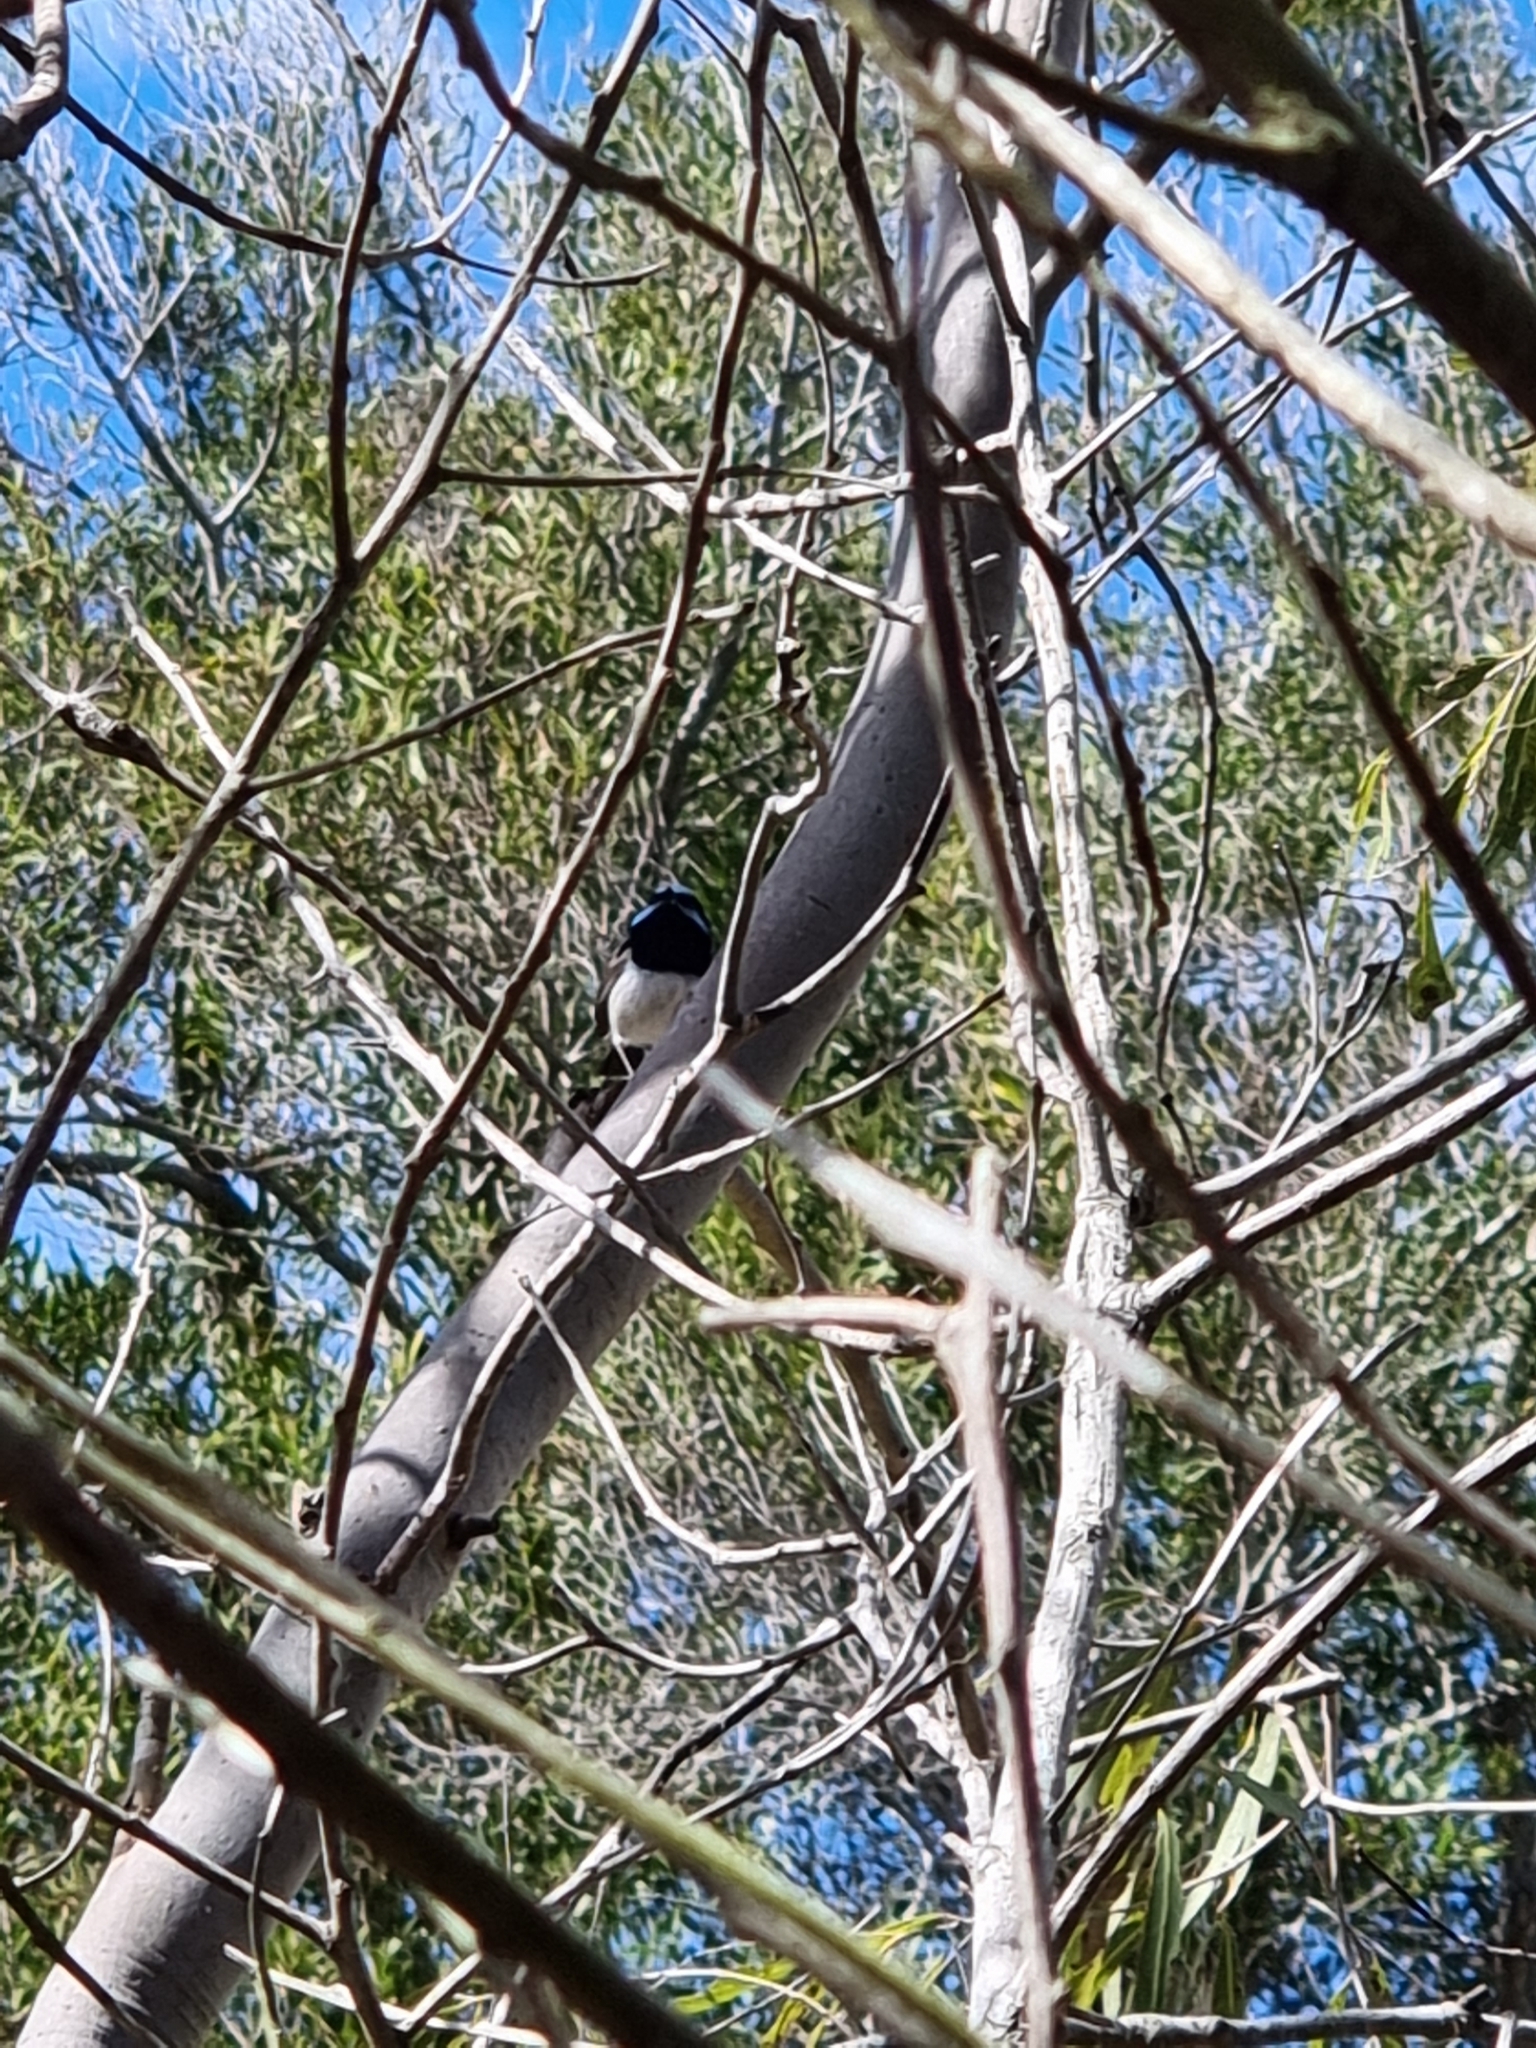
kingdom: Animalia
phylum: Chordata
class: Aves
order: Passeriformes
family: Maluridae
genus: Malurus
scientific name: Malurus cyaneus
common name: Superb fairywren
